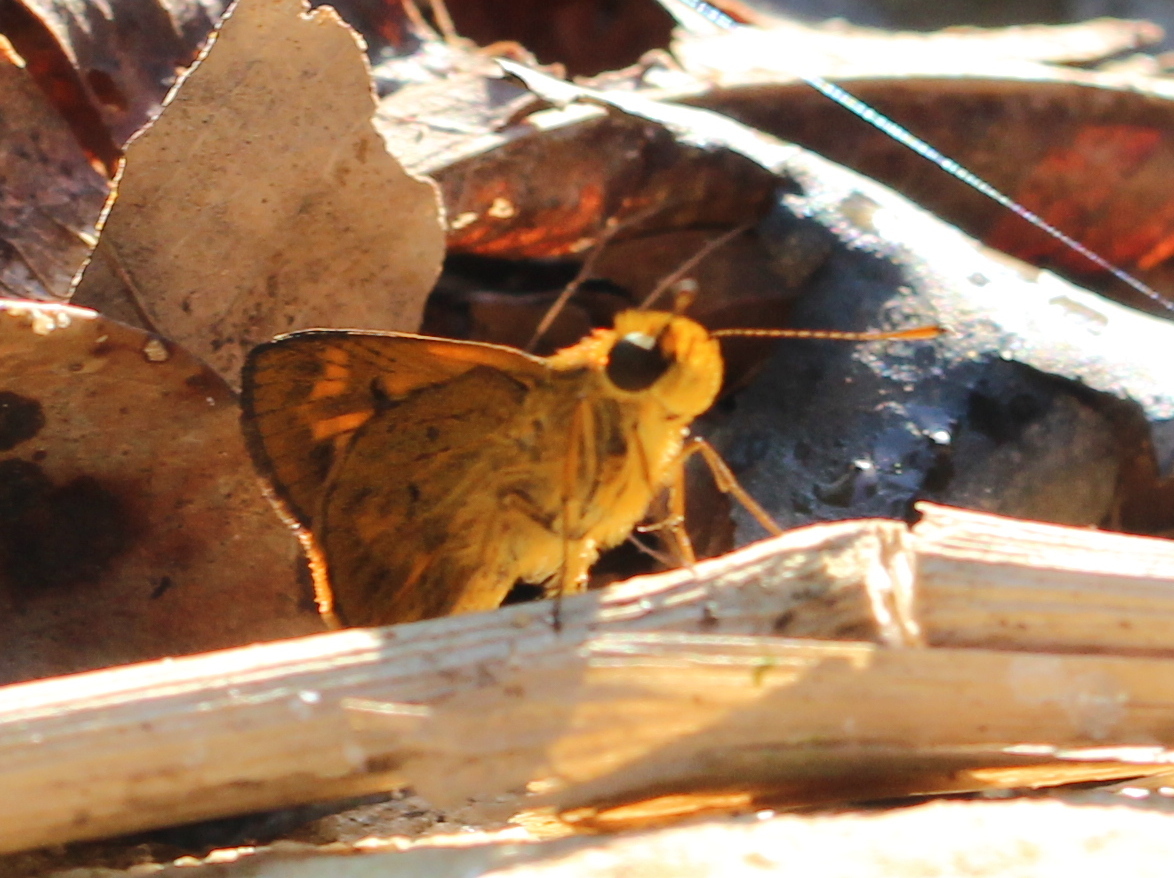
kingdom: Animalia
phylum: Arthropoda
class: Insecta
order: Lepidoptera
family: Hesperiidae
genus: Oriens
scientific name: Oriens goloides
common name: Smaller dartlet
